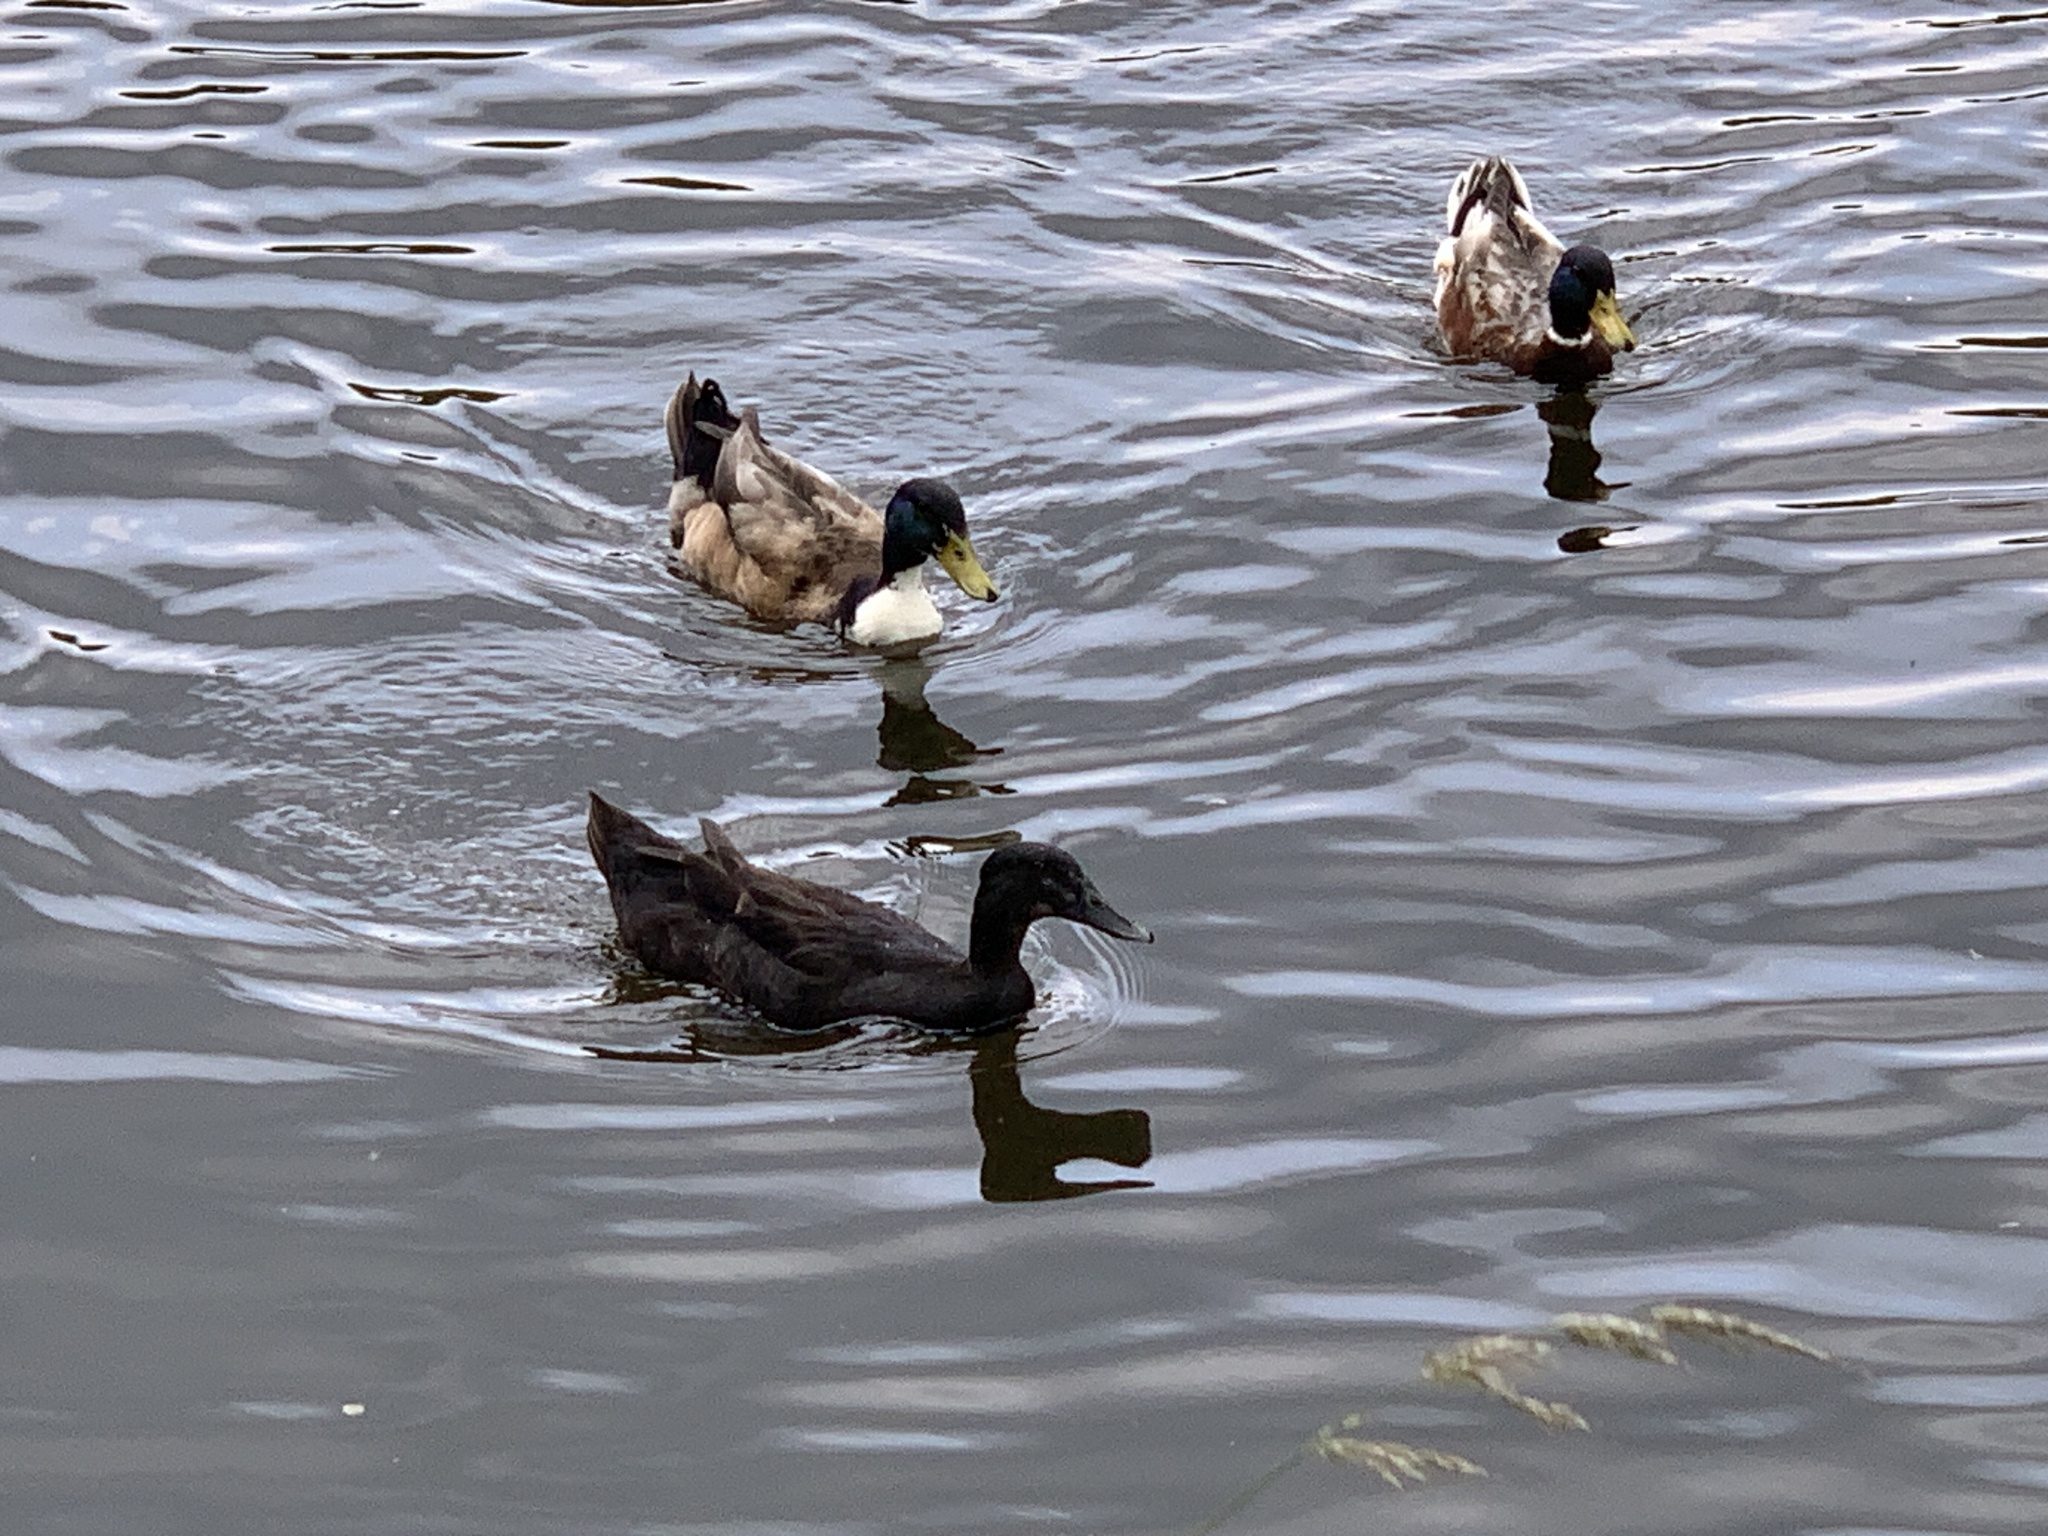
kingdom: Animalia
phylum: Chordata
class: Aves
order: Anseriformes
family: Anatidae
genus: Anas
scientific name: Anas platyrhynchos
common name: Mallard
